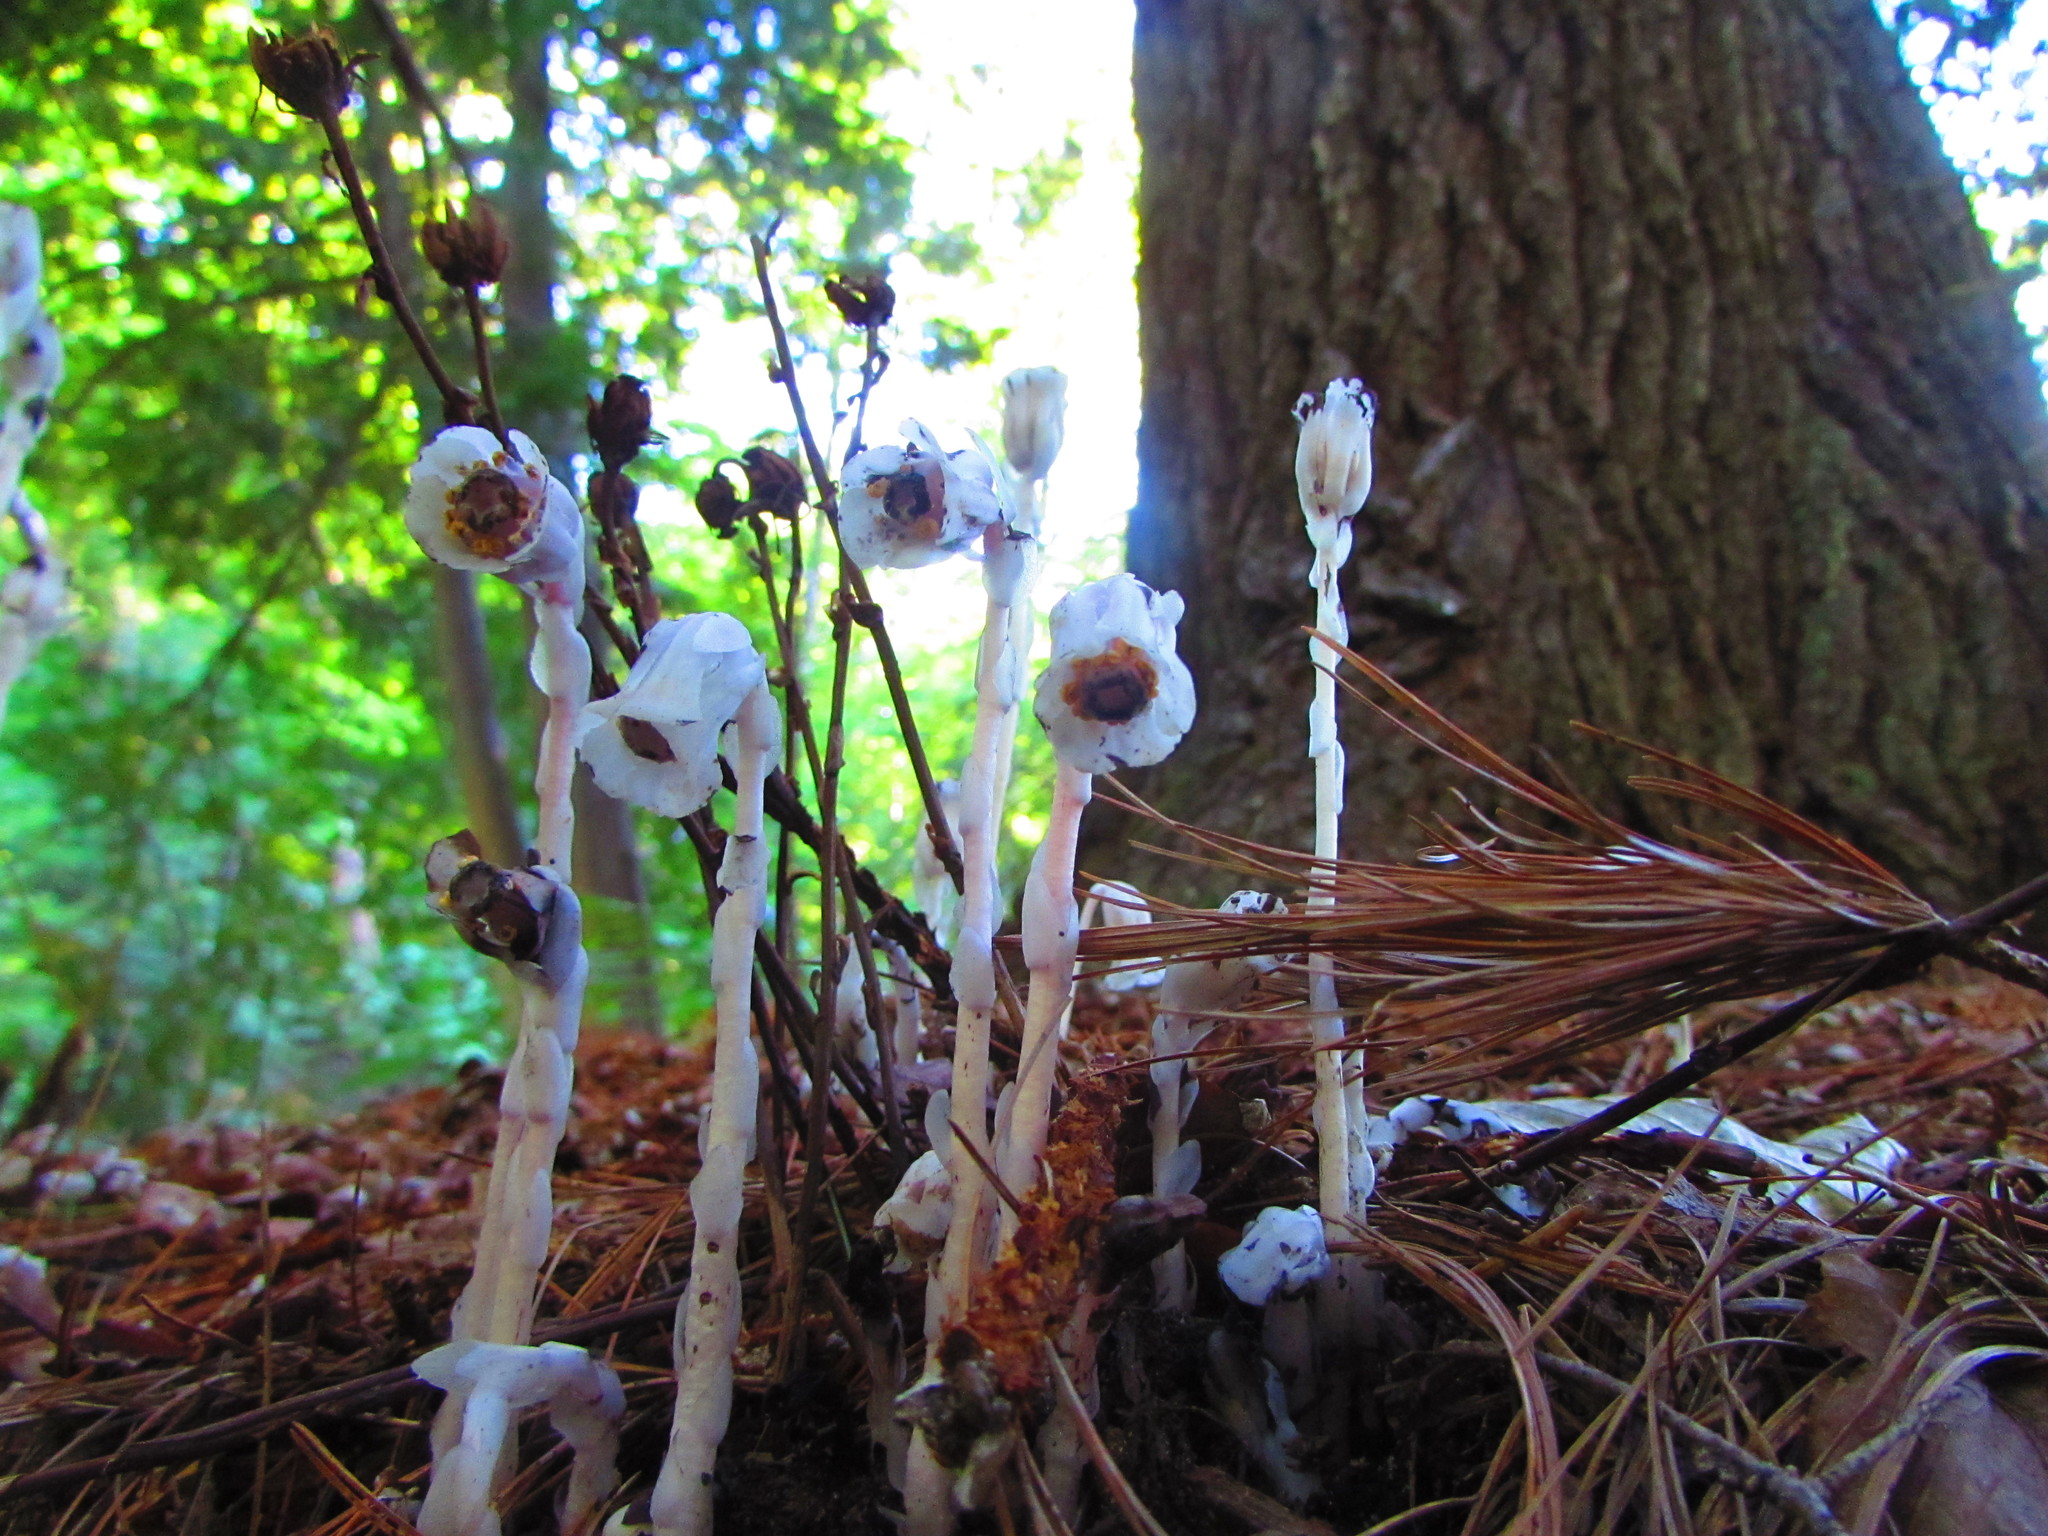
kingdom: Plantae
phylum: Tracheophyta
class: Magnoliopsida
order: Ericales
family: Ericaceae
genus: Monotropa
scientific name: Monotropa uniflora
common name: Convulsion root
